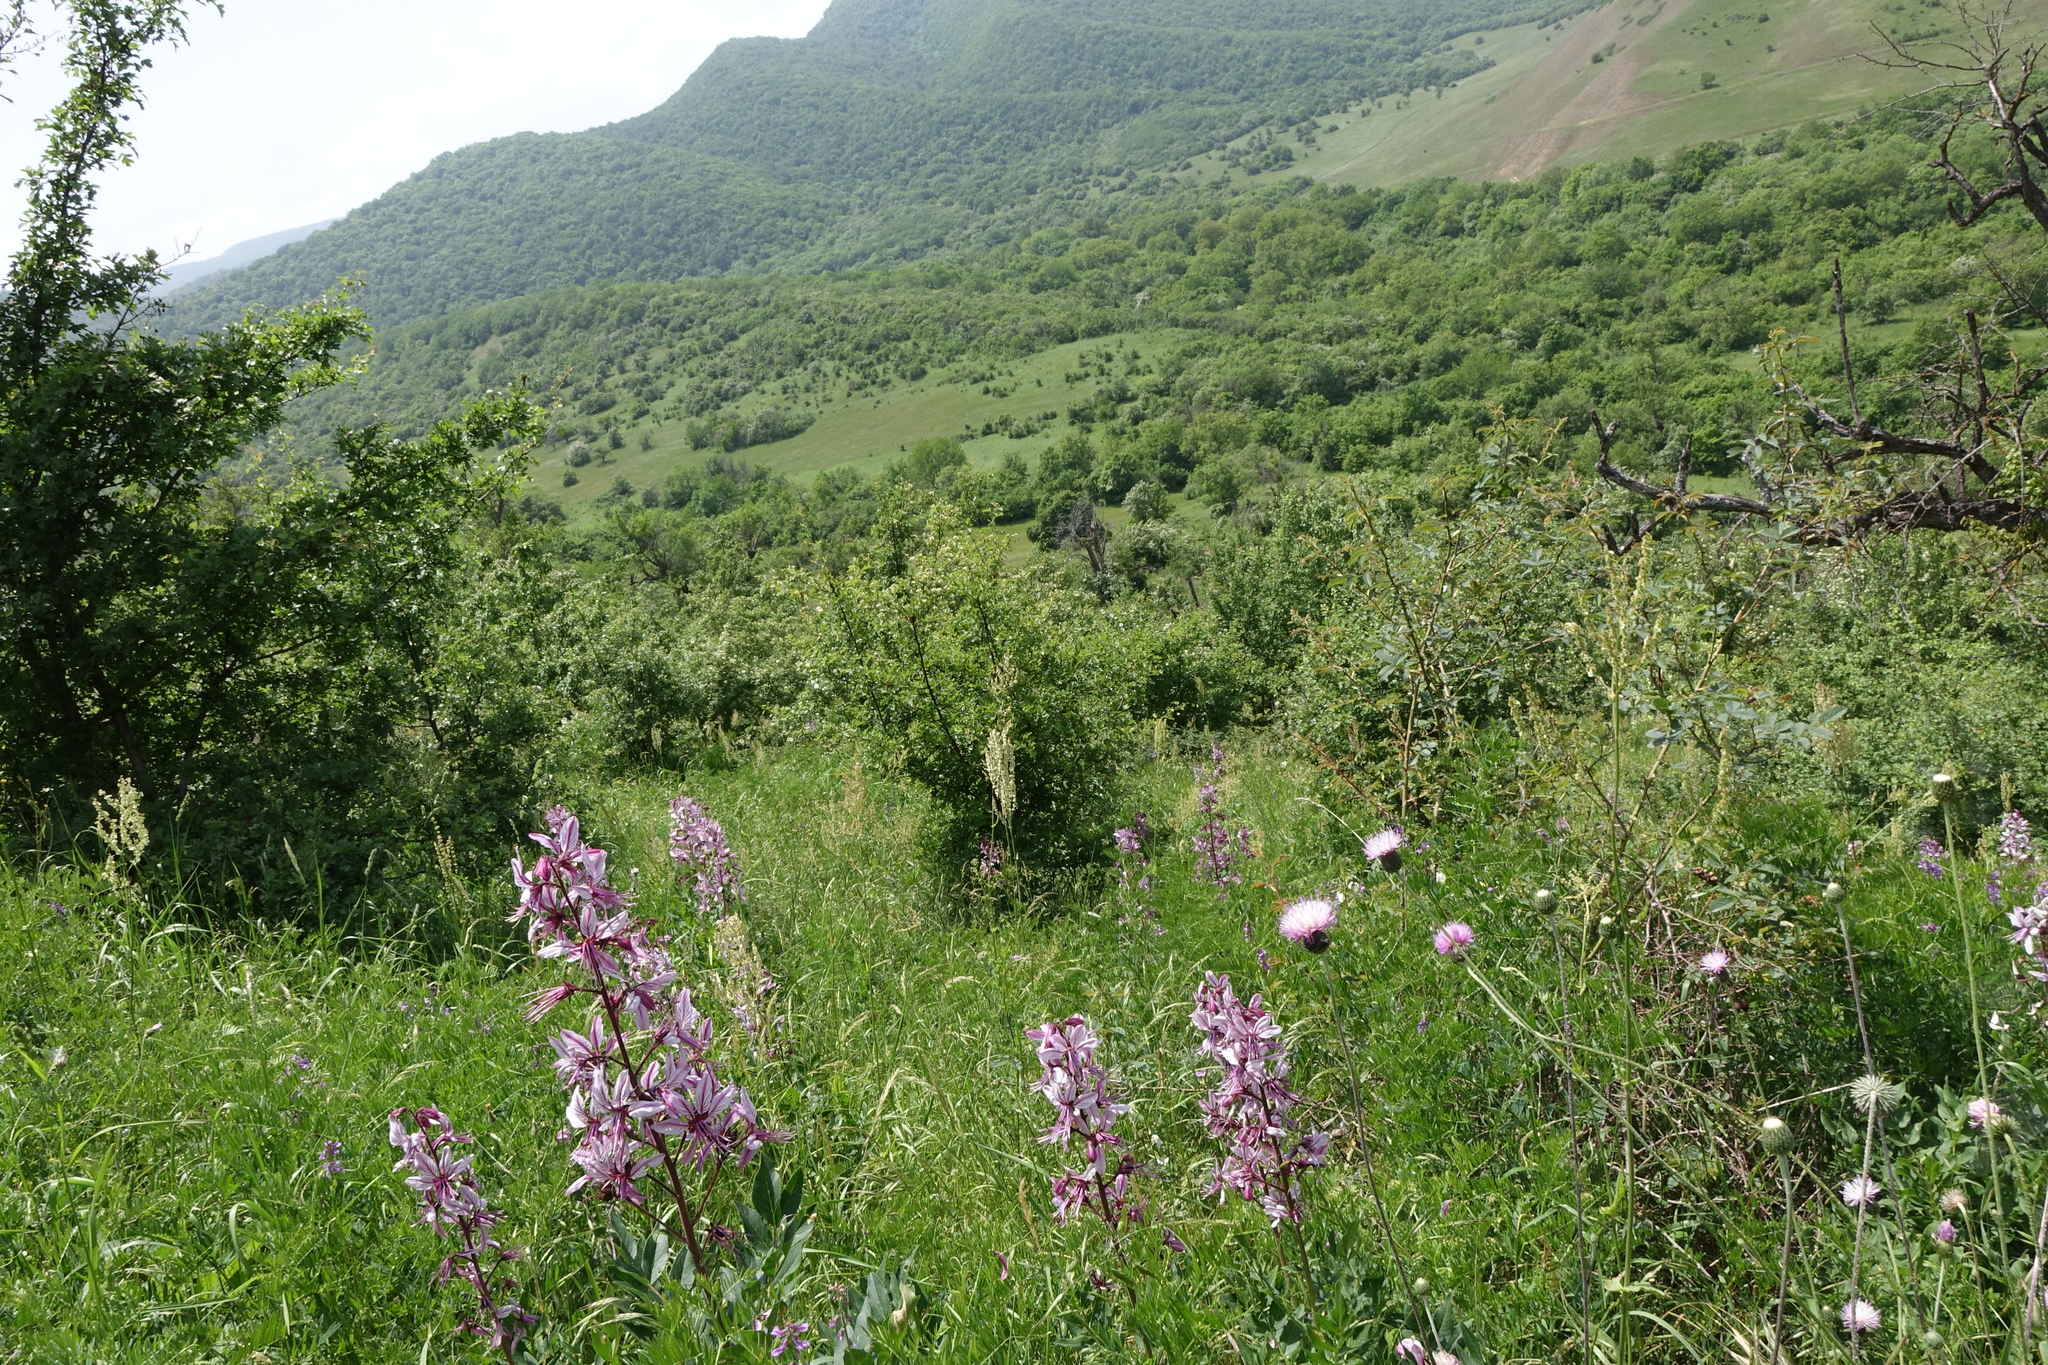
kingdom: Plantae
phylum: Tracheophyta
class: Magnoliopsida
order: Sapindales
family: Rutaceae
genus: Dictamnus
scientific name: Dictamnus albus
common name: Gasplant
